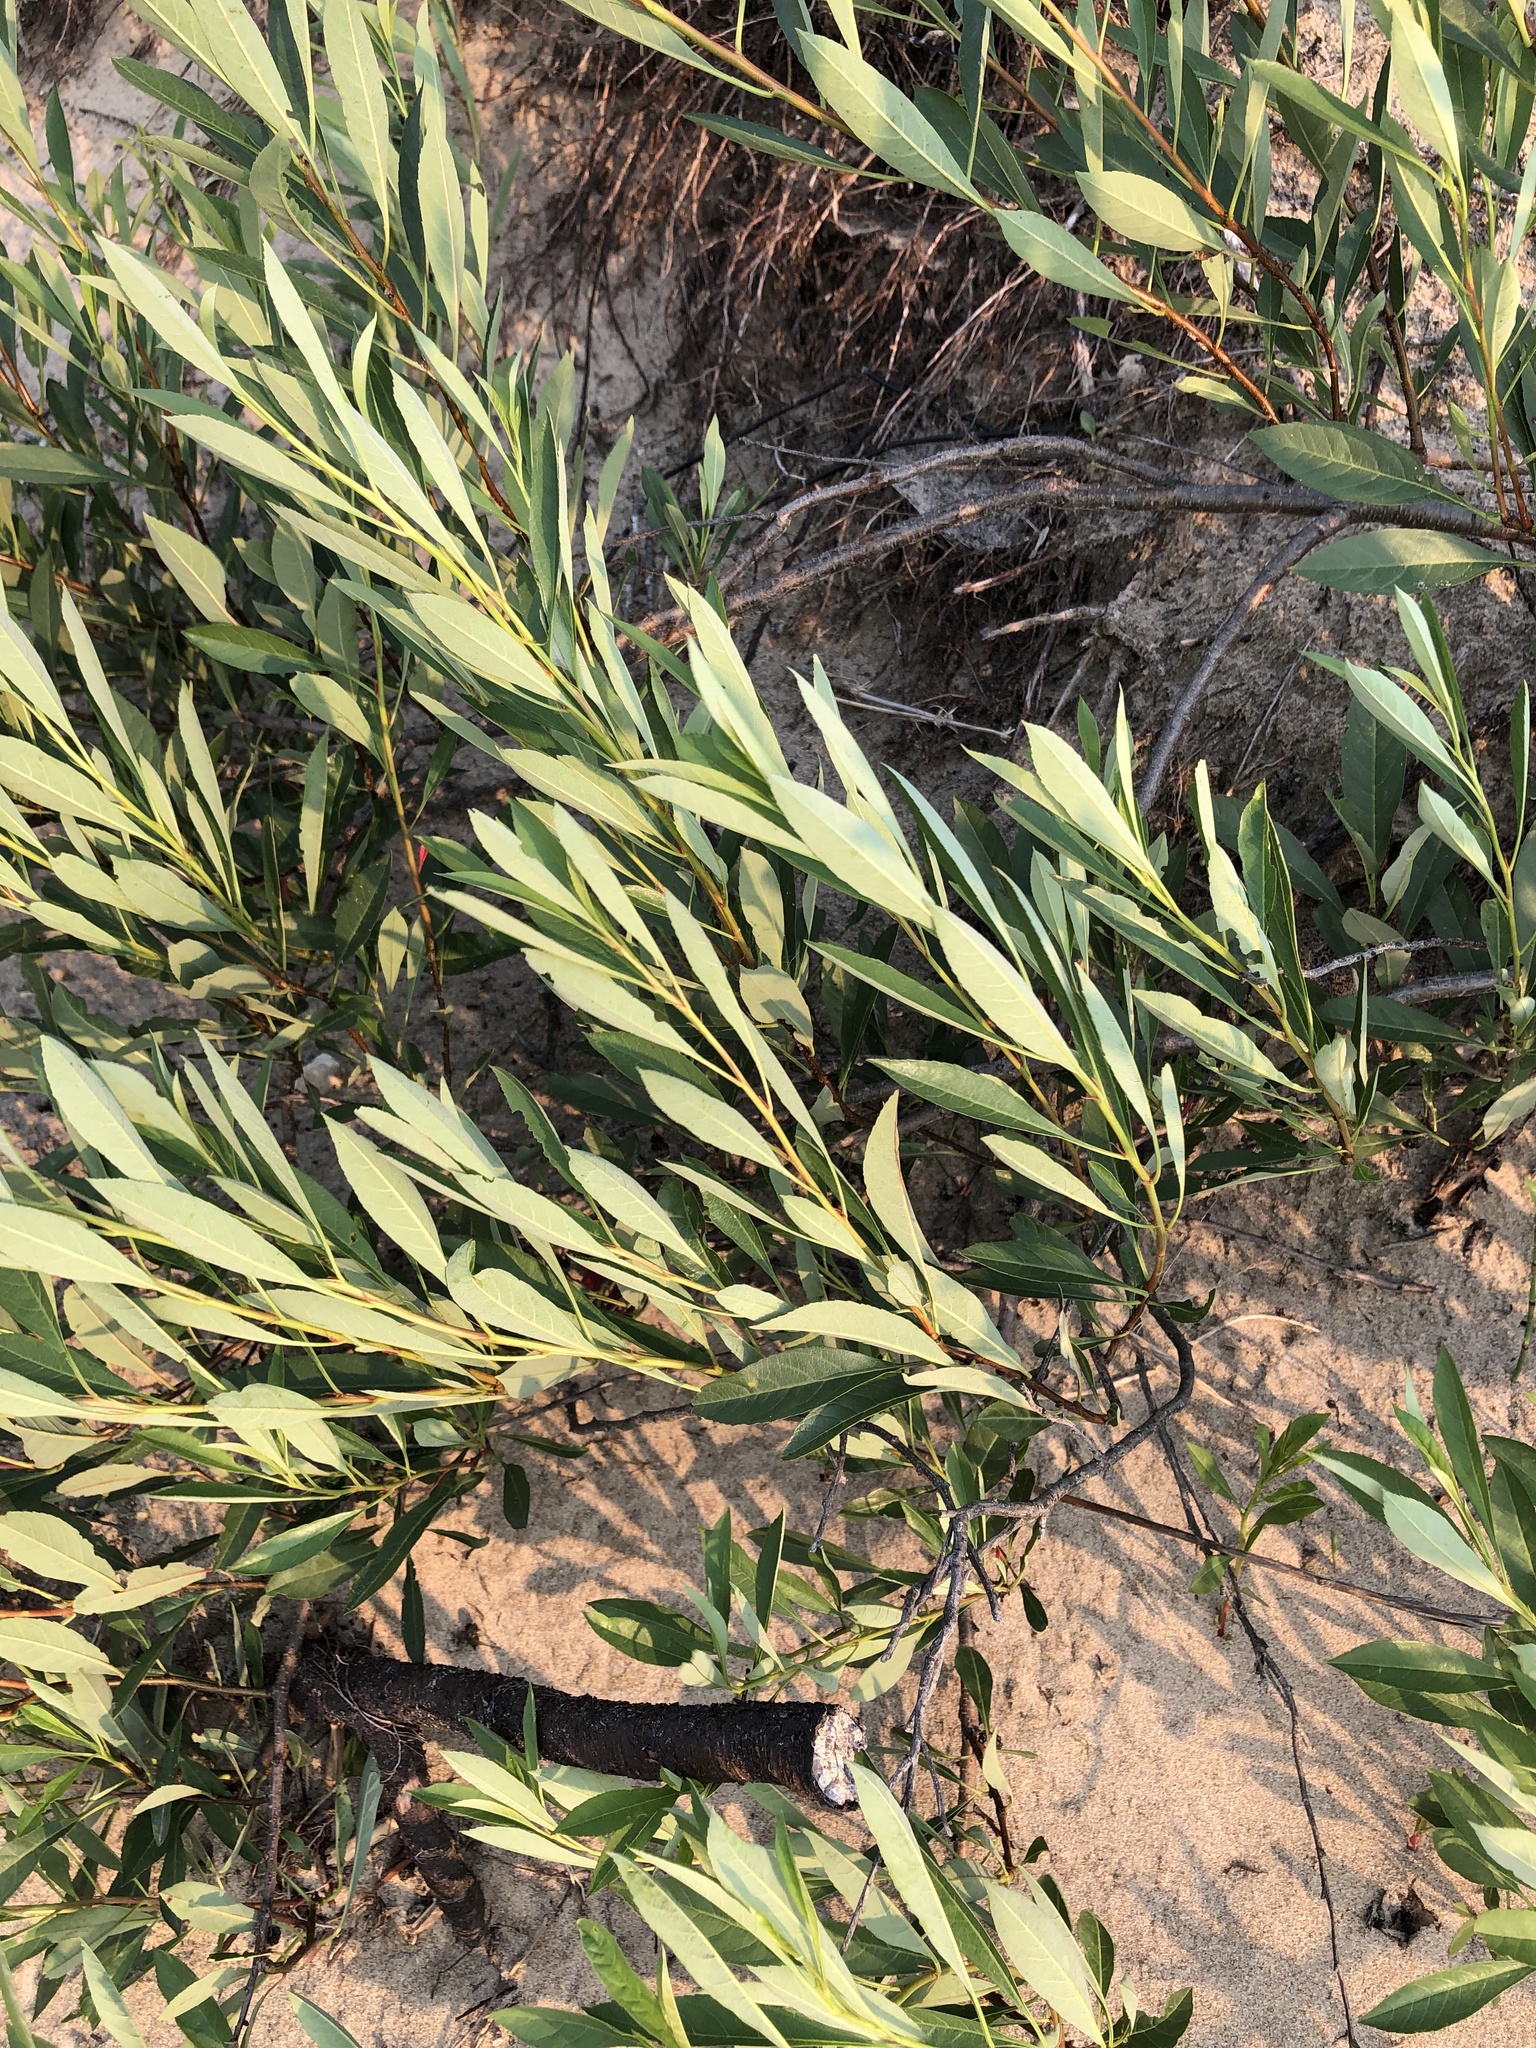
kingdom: Plantae
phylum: Tracheophyta
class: Magnoliopsida
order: Rosales
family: Rosaceae
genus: Prunus
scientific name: Prunus pumila
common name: Dwarf cherry
